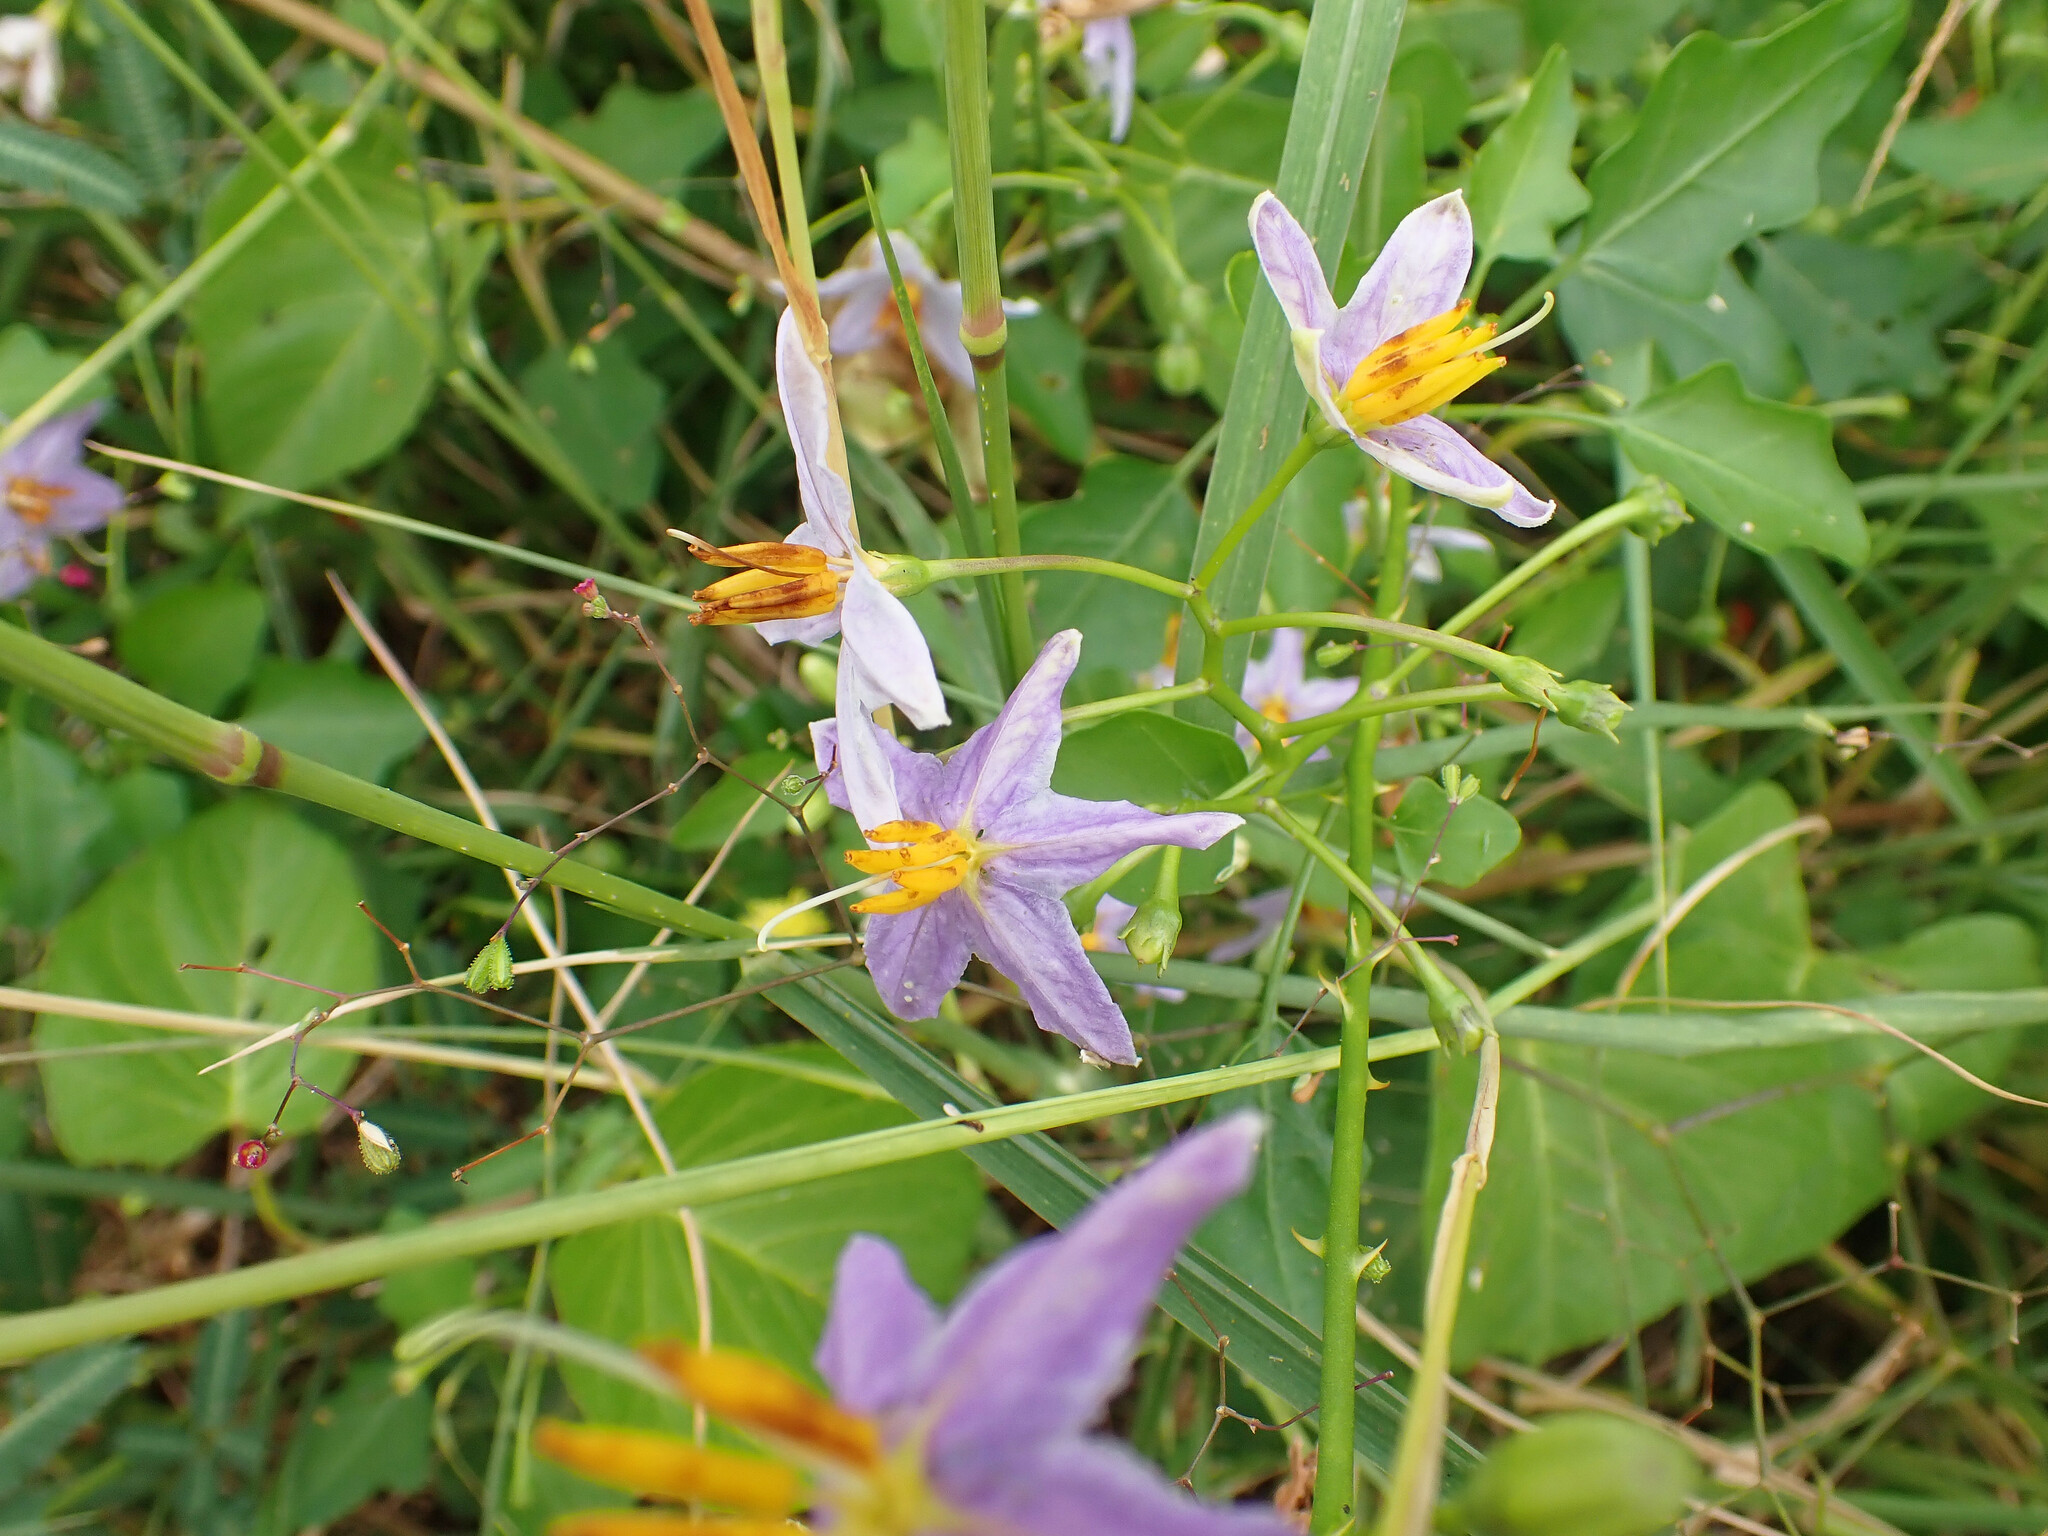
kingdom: Plantae
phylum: Tracheophyta
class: Magnoliopsida
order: Solanales
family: Solanaceae
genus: Solanum
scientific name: Solanum trilobatum
